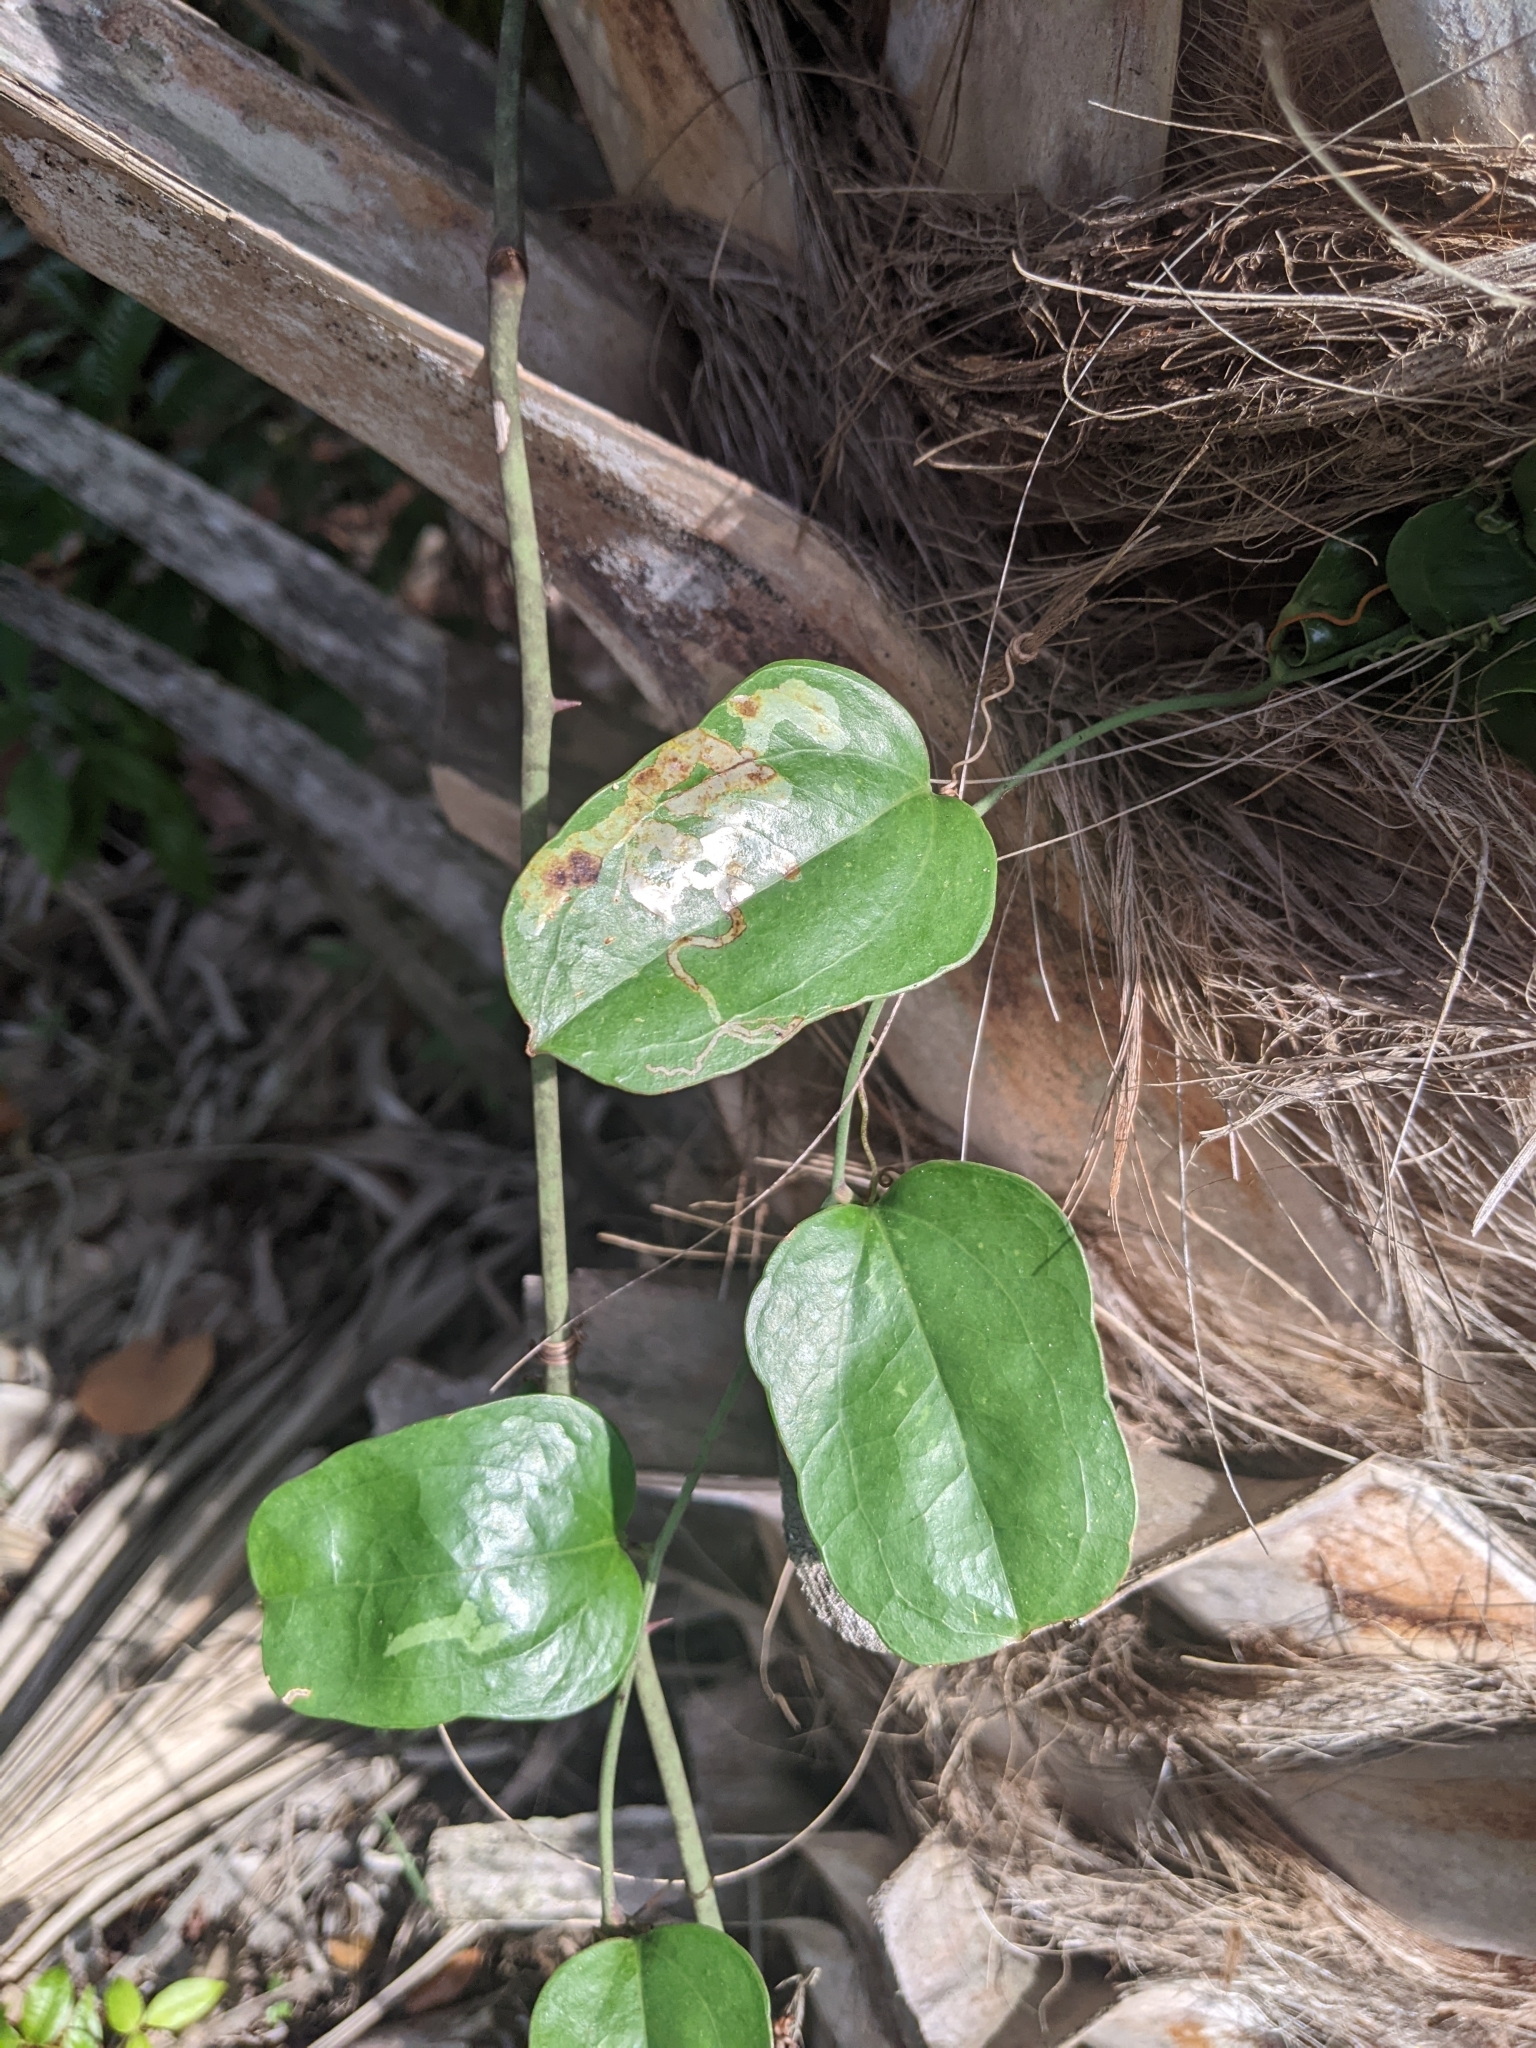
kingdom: Plantae
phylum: Tracheophyta
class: Liliopsida
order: Liliales
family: Smilacaceae
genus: Smilax
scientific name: Smilax auriculata
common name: Wild bamboo
